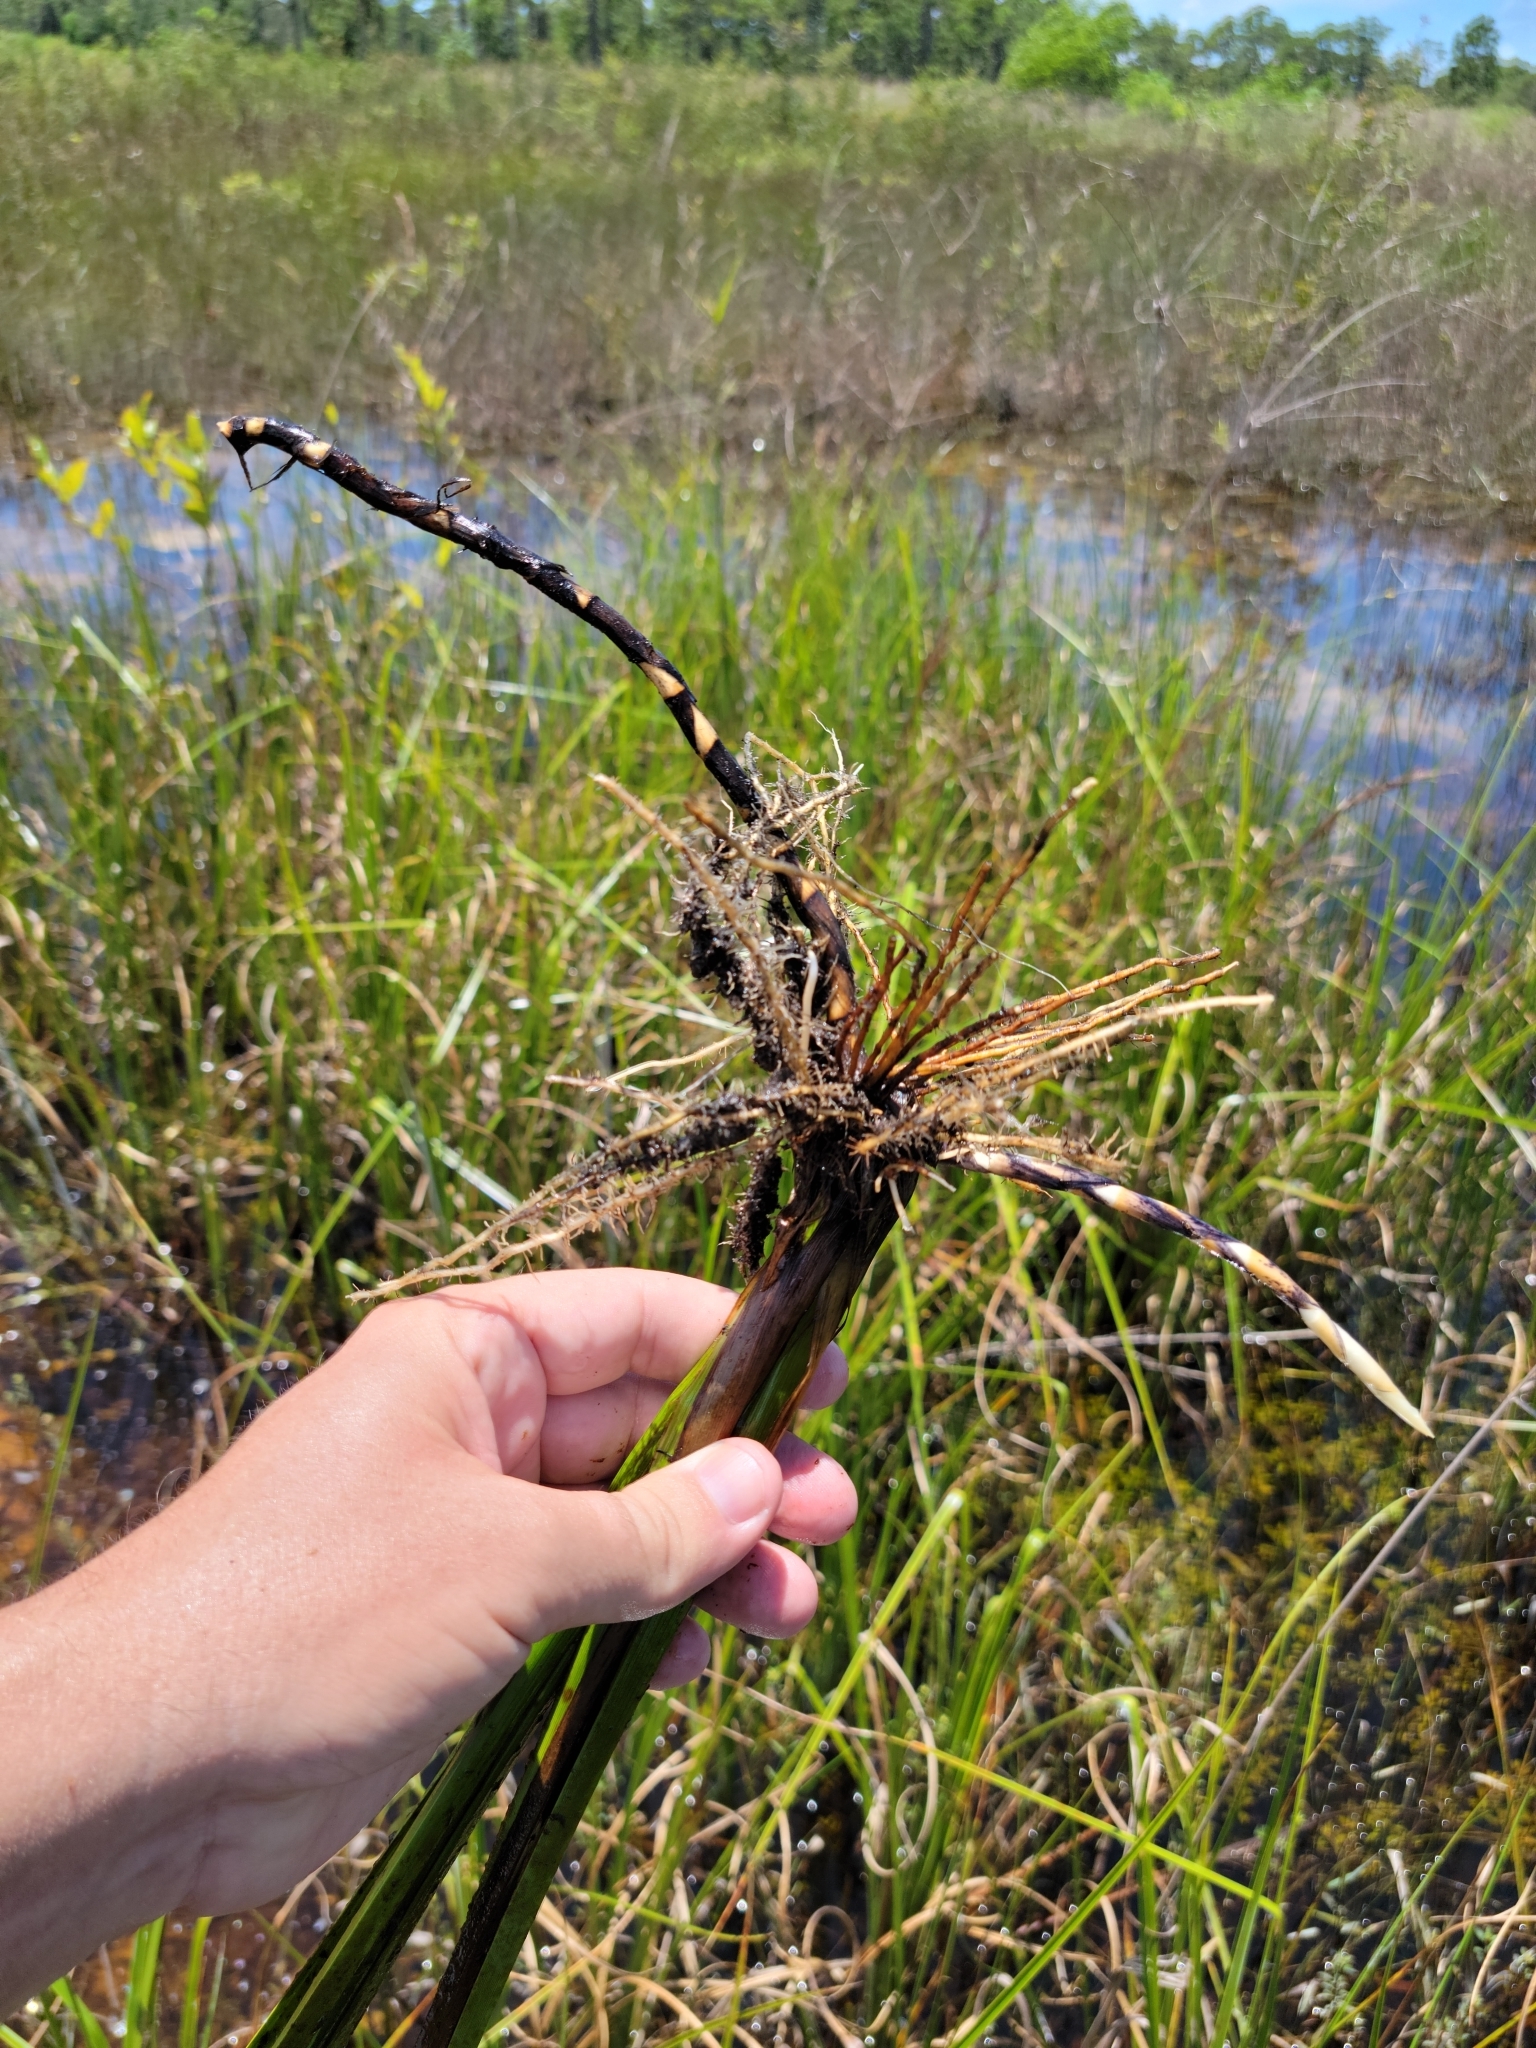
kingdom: Plantae
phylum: Tracheophyta
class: Liliopsida
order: Poales
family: Cyperaceae
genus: Rhynchospora
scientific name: Rhynchospora inundata
